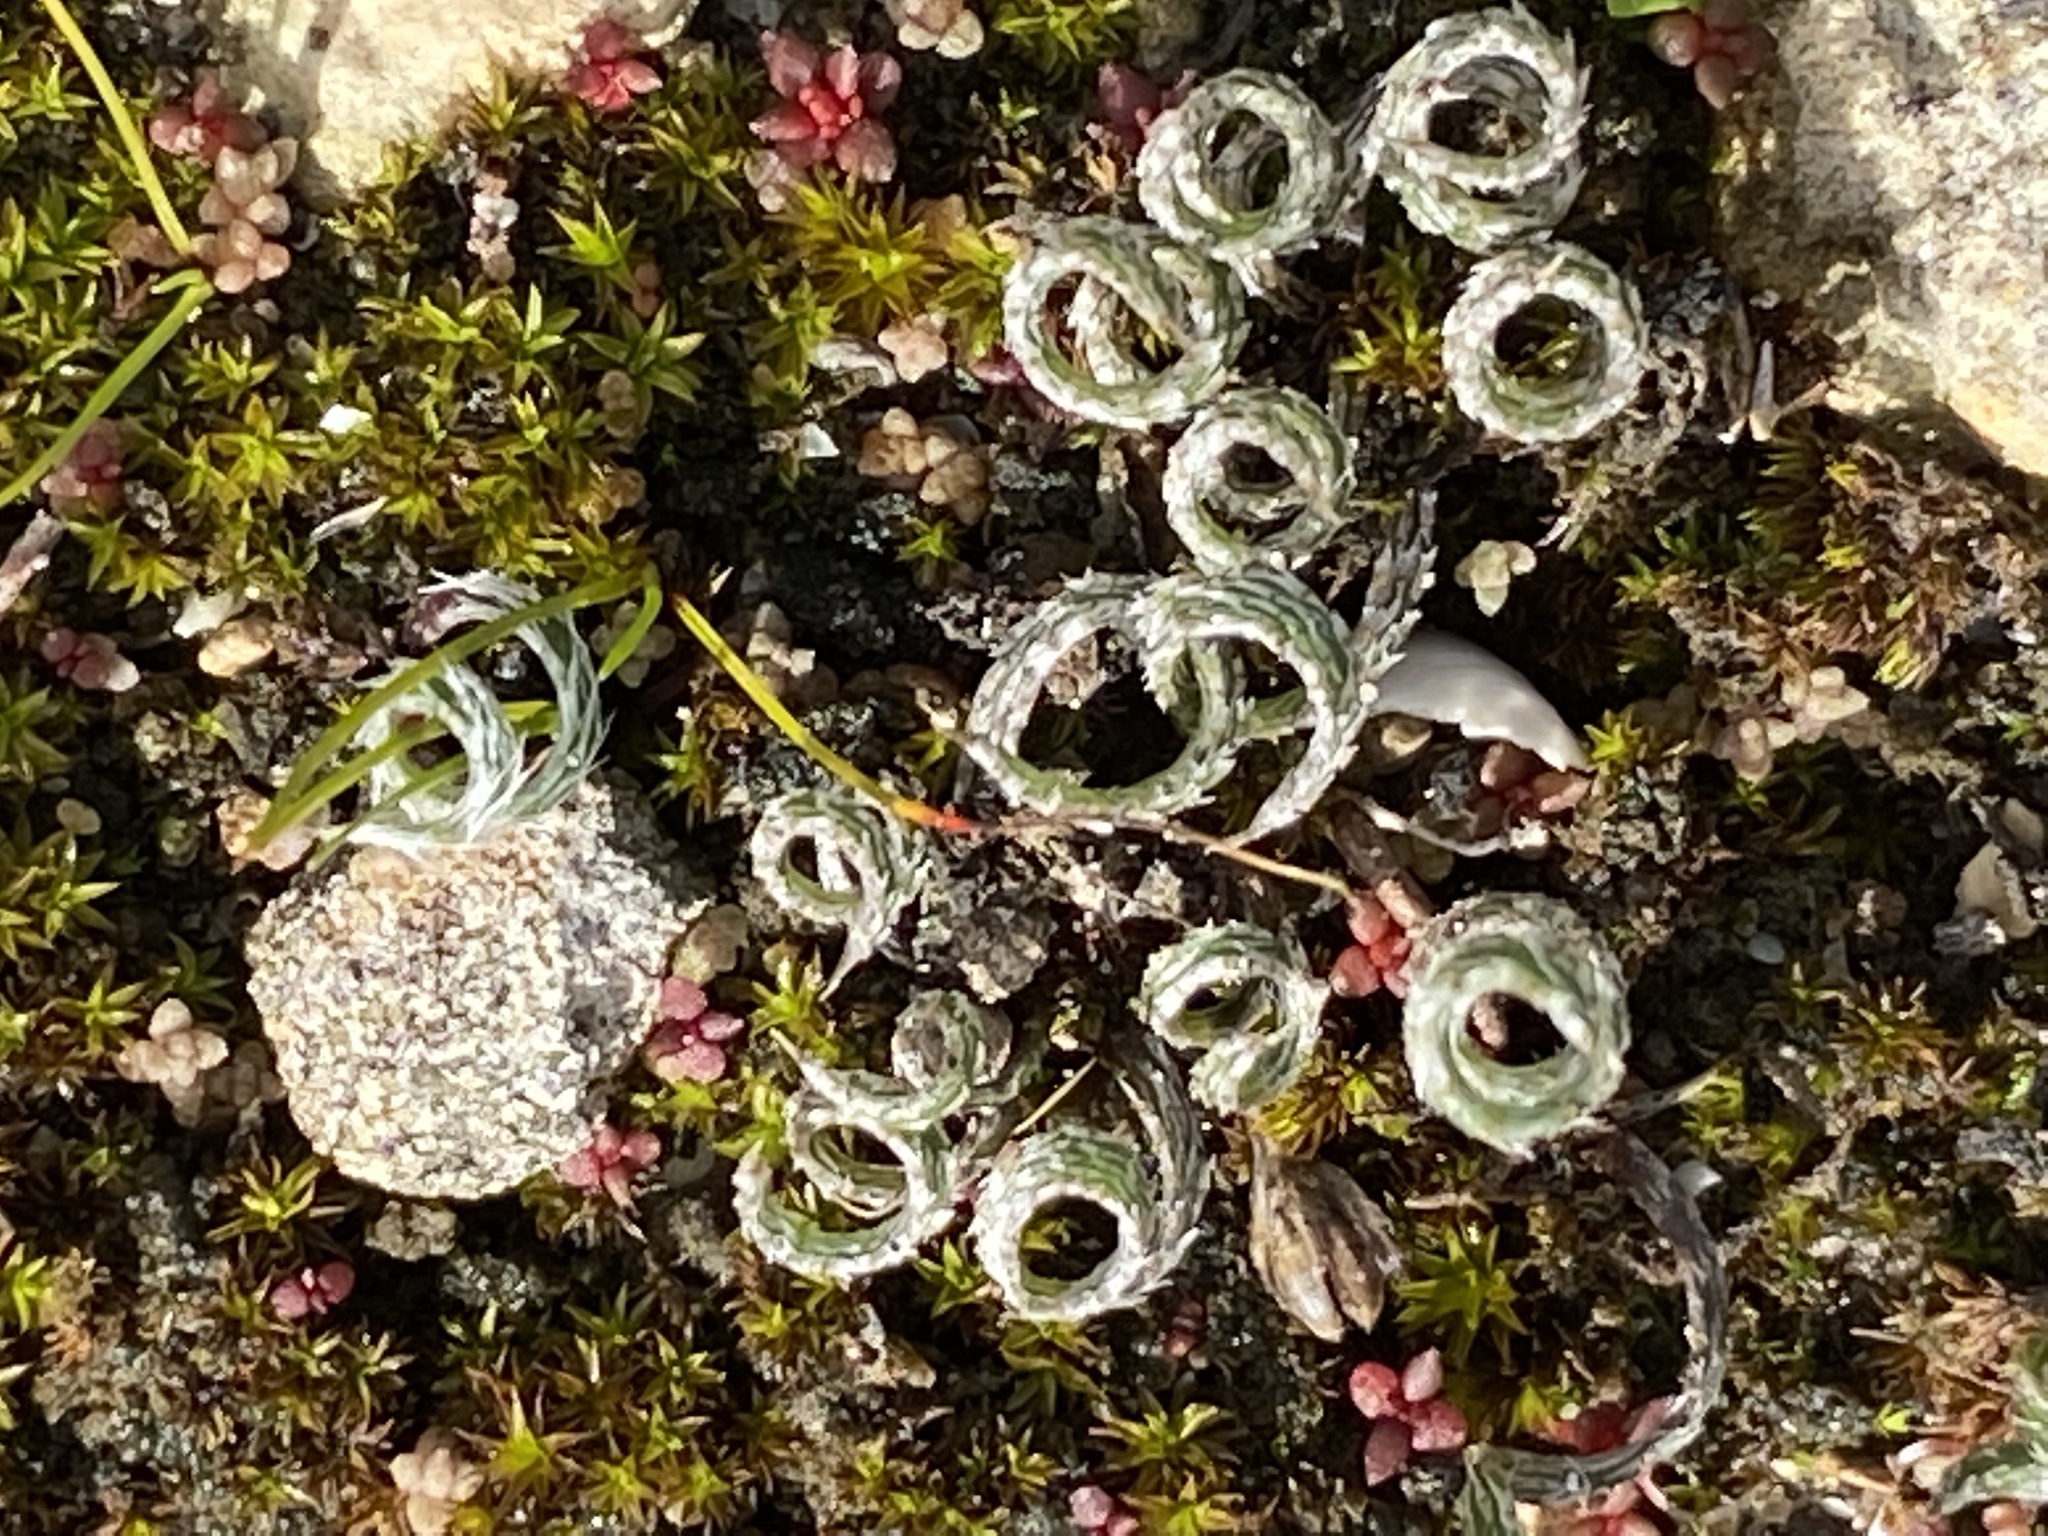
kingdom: Plantae
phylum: Tracheophyta
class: Liliopsida
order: Asparagales
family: Amaryllidaceae
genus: Gethyllis
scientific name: Gethyllis villosa
